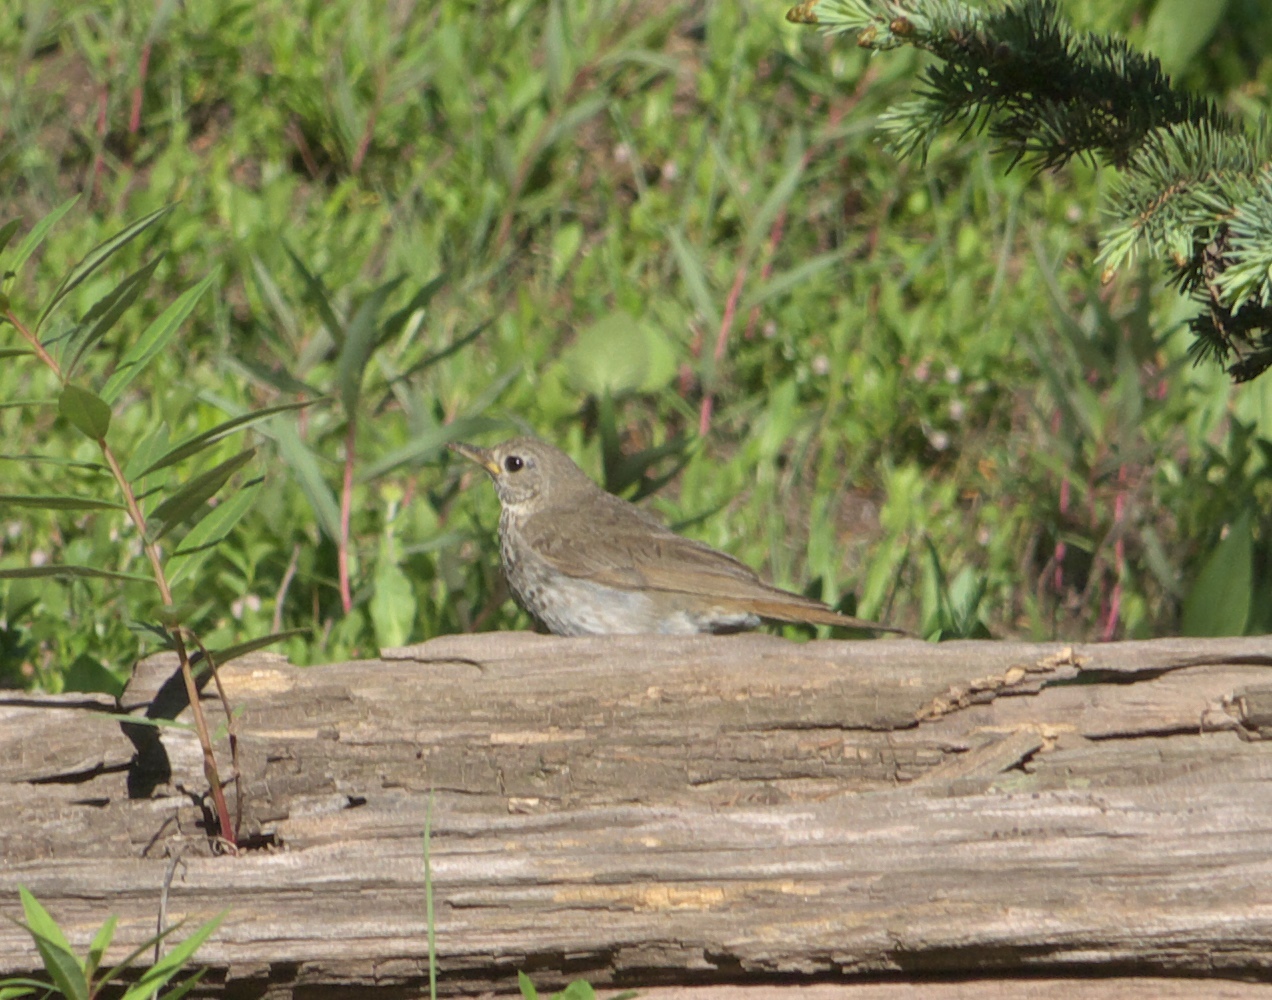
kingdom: Animalia
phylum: Chordata
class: Aves
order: Passeriformes
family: Turdidae
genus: Catharus
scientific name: Catharus guttatus
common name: Hermit thrush
